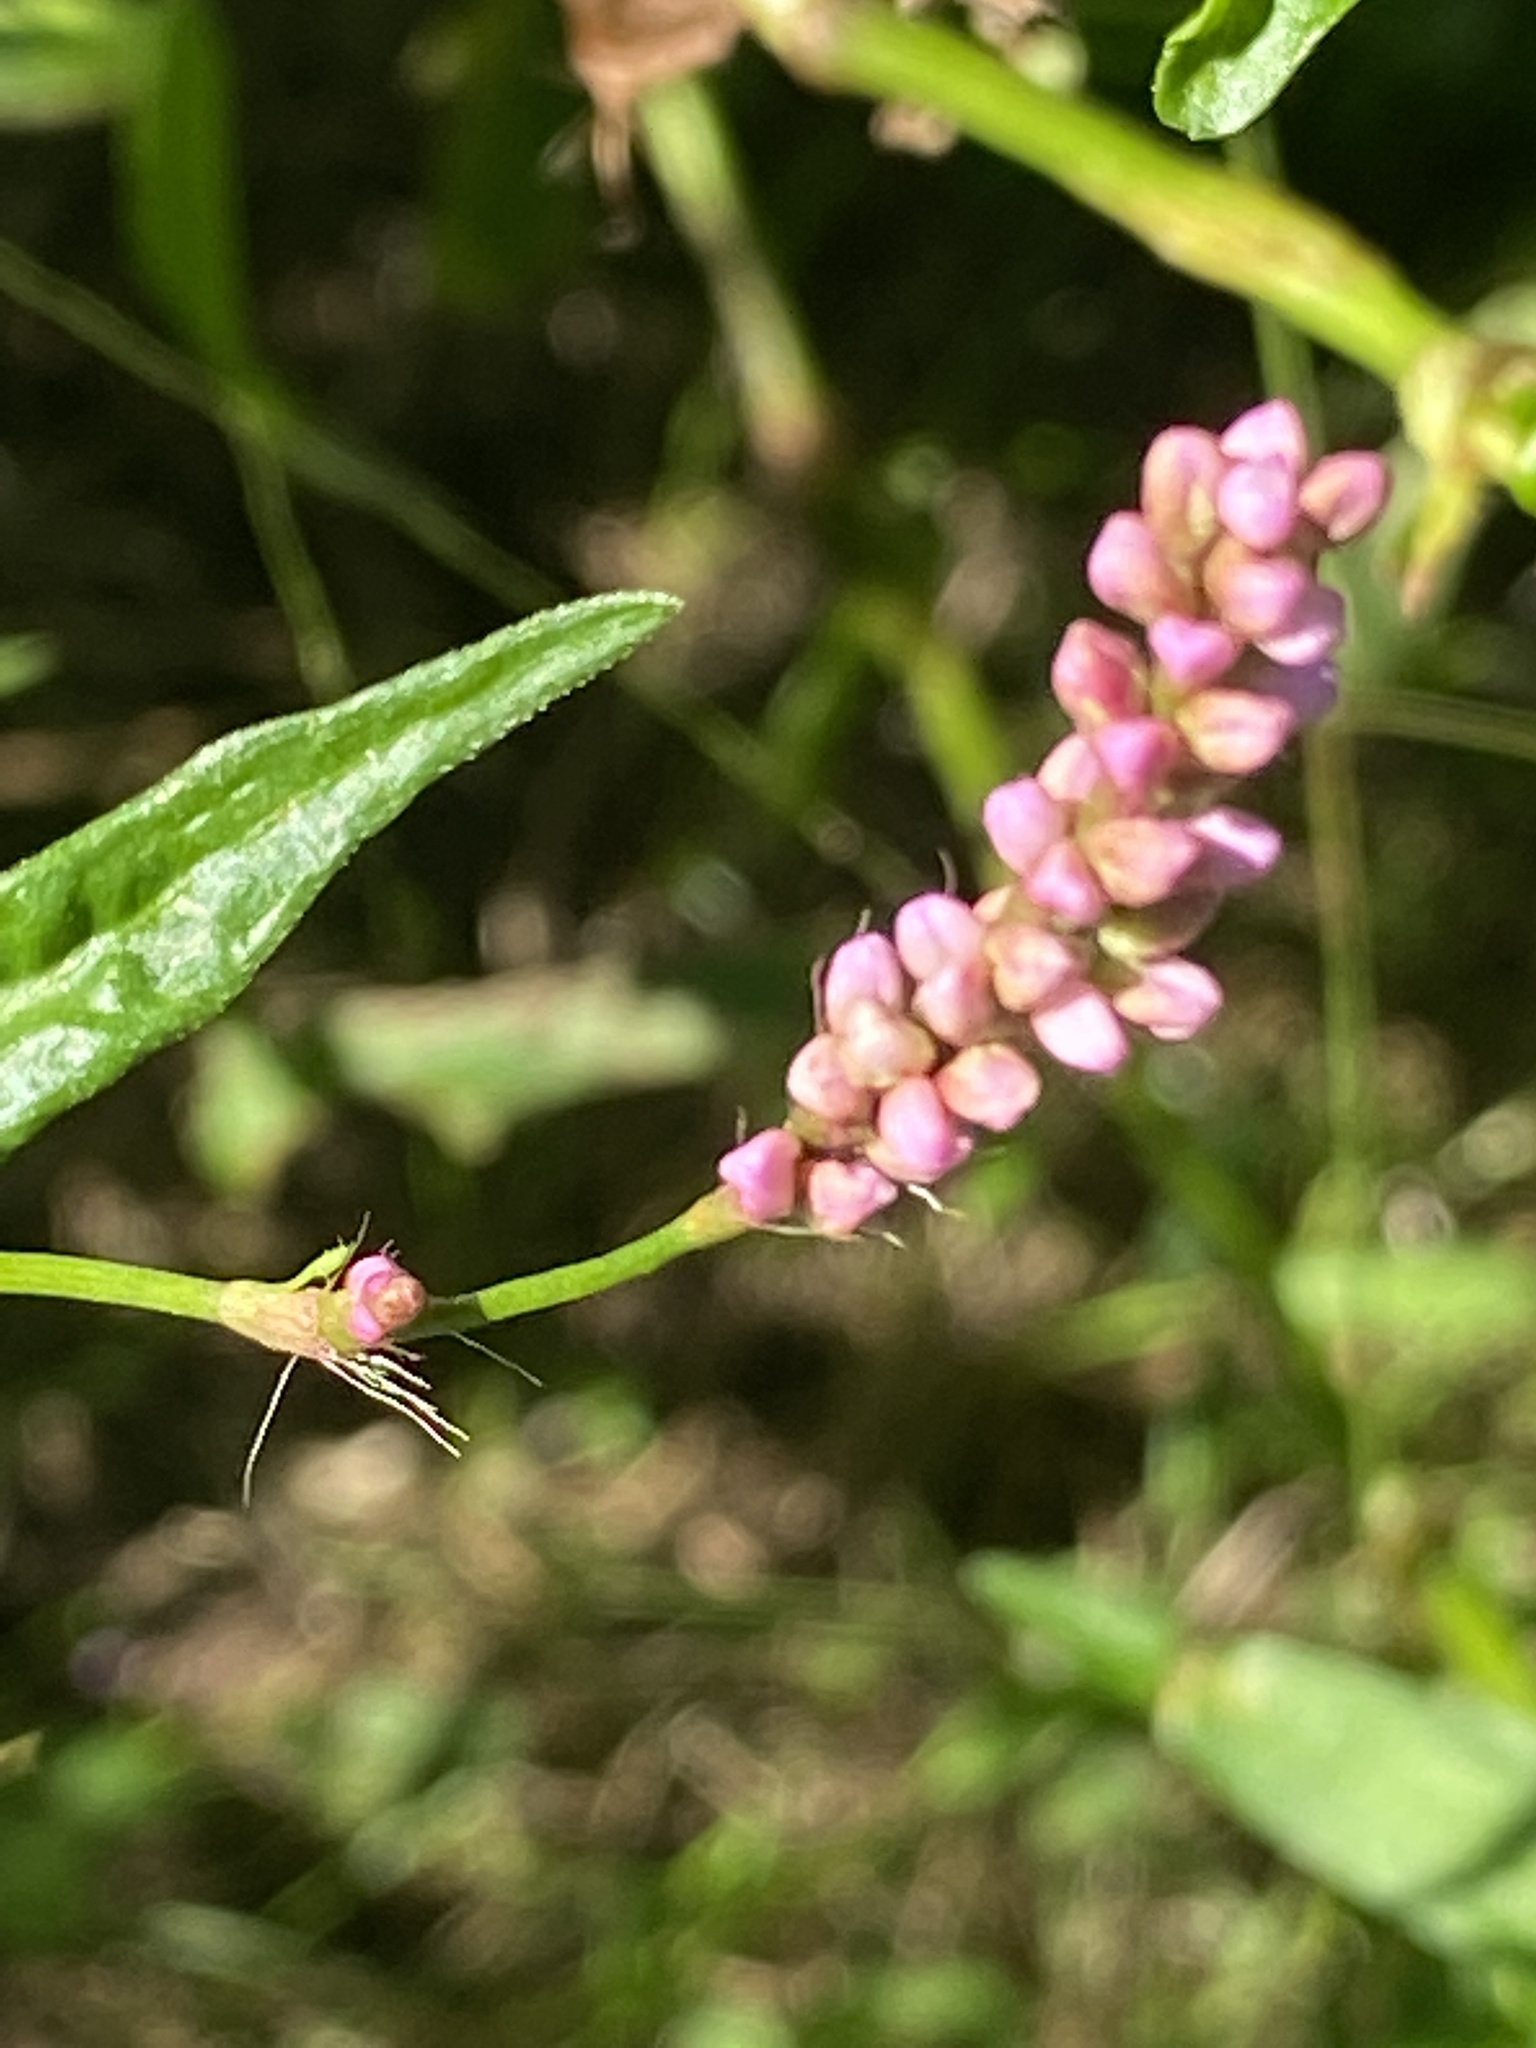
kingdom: Plantae
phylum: Tracheophyta
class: Magnoliopsida
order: Caryophyllales
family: Polygonaceae
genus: Persicaria
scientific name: Persicaria longiseta
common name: Bristly lady's-thumb
